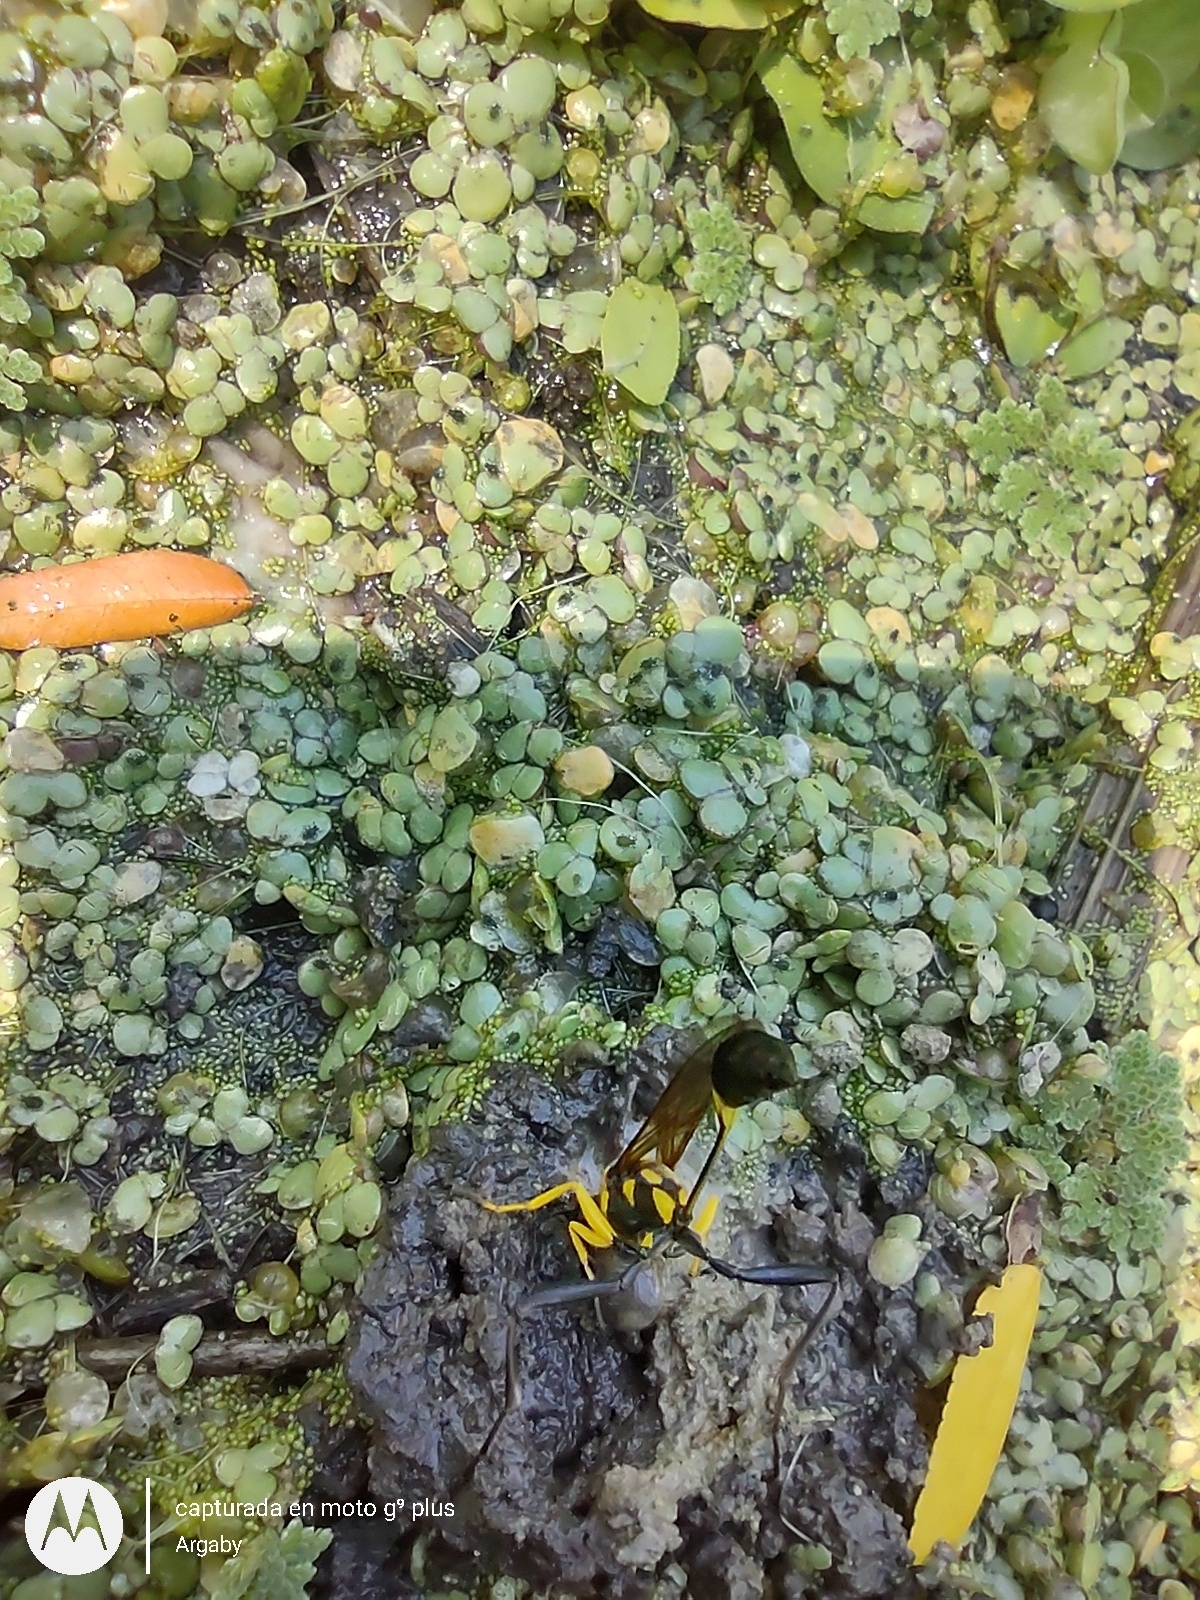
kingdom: Animalia
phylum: Arthropoda
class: Insecta
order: Hymenoptera
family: Sphecidae
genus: Sceliphron
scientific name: Sceliphron fistularium
